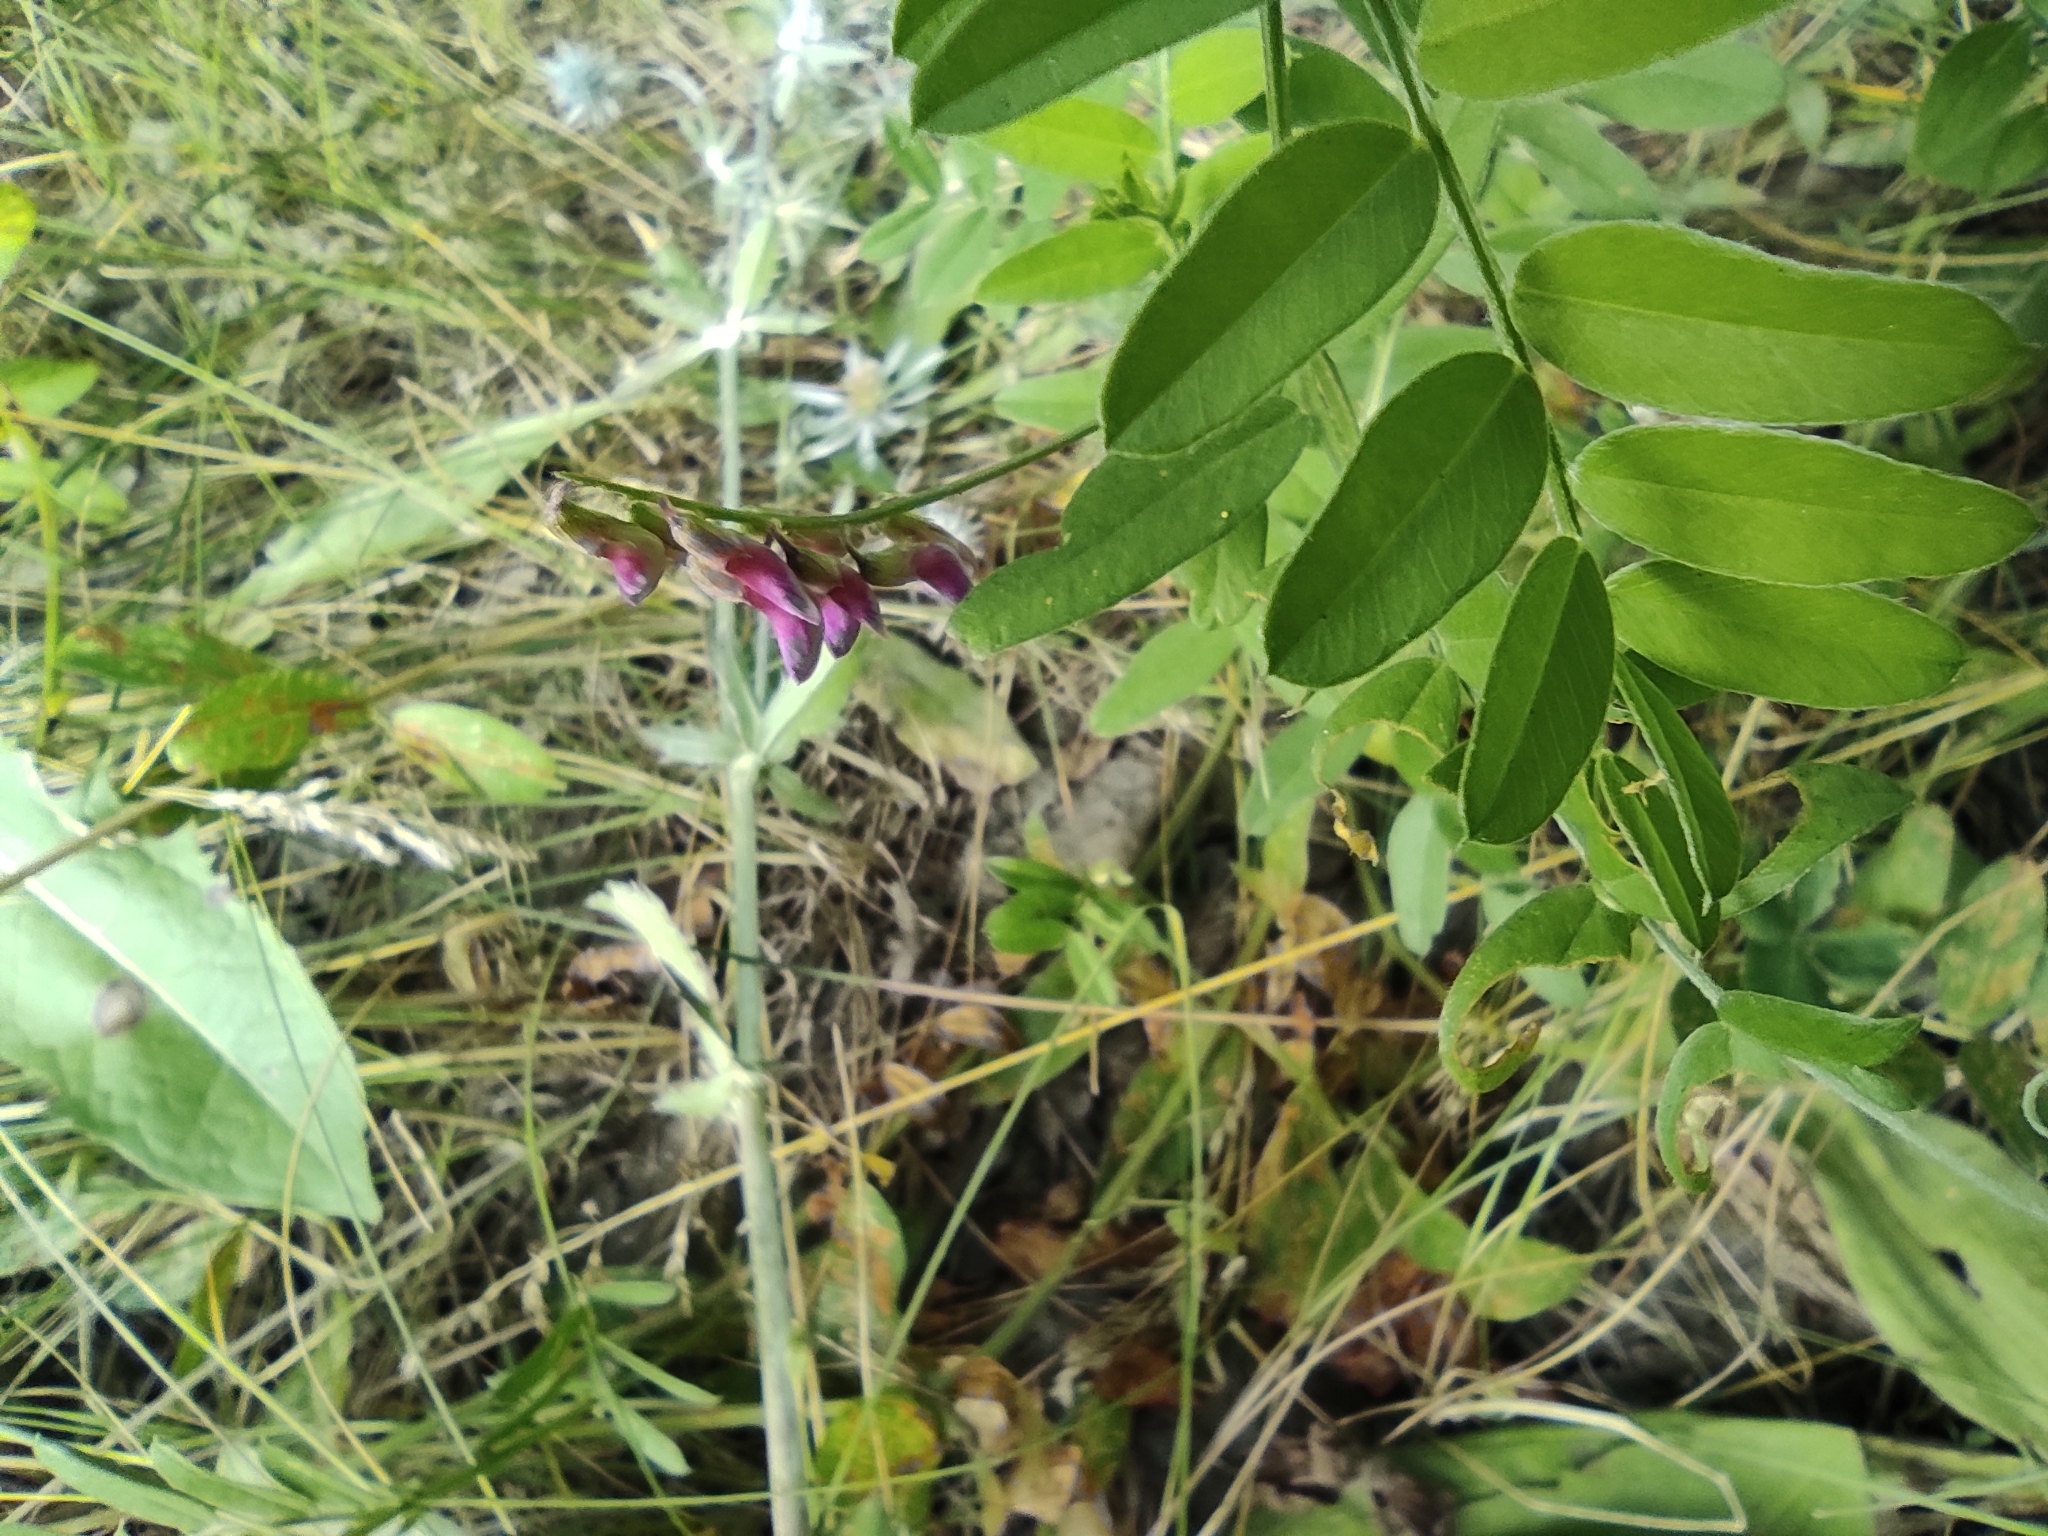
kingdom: Plantae
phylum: Tracheophyta
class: Magnoliopsida
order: Fabales
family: Fabaceae
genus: Vicia
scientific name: Vicia amoena
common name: Cheder ebs
